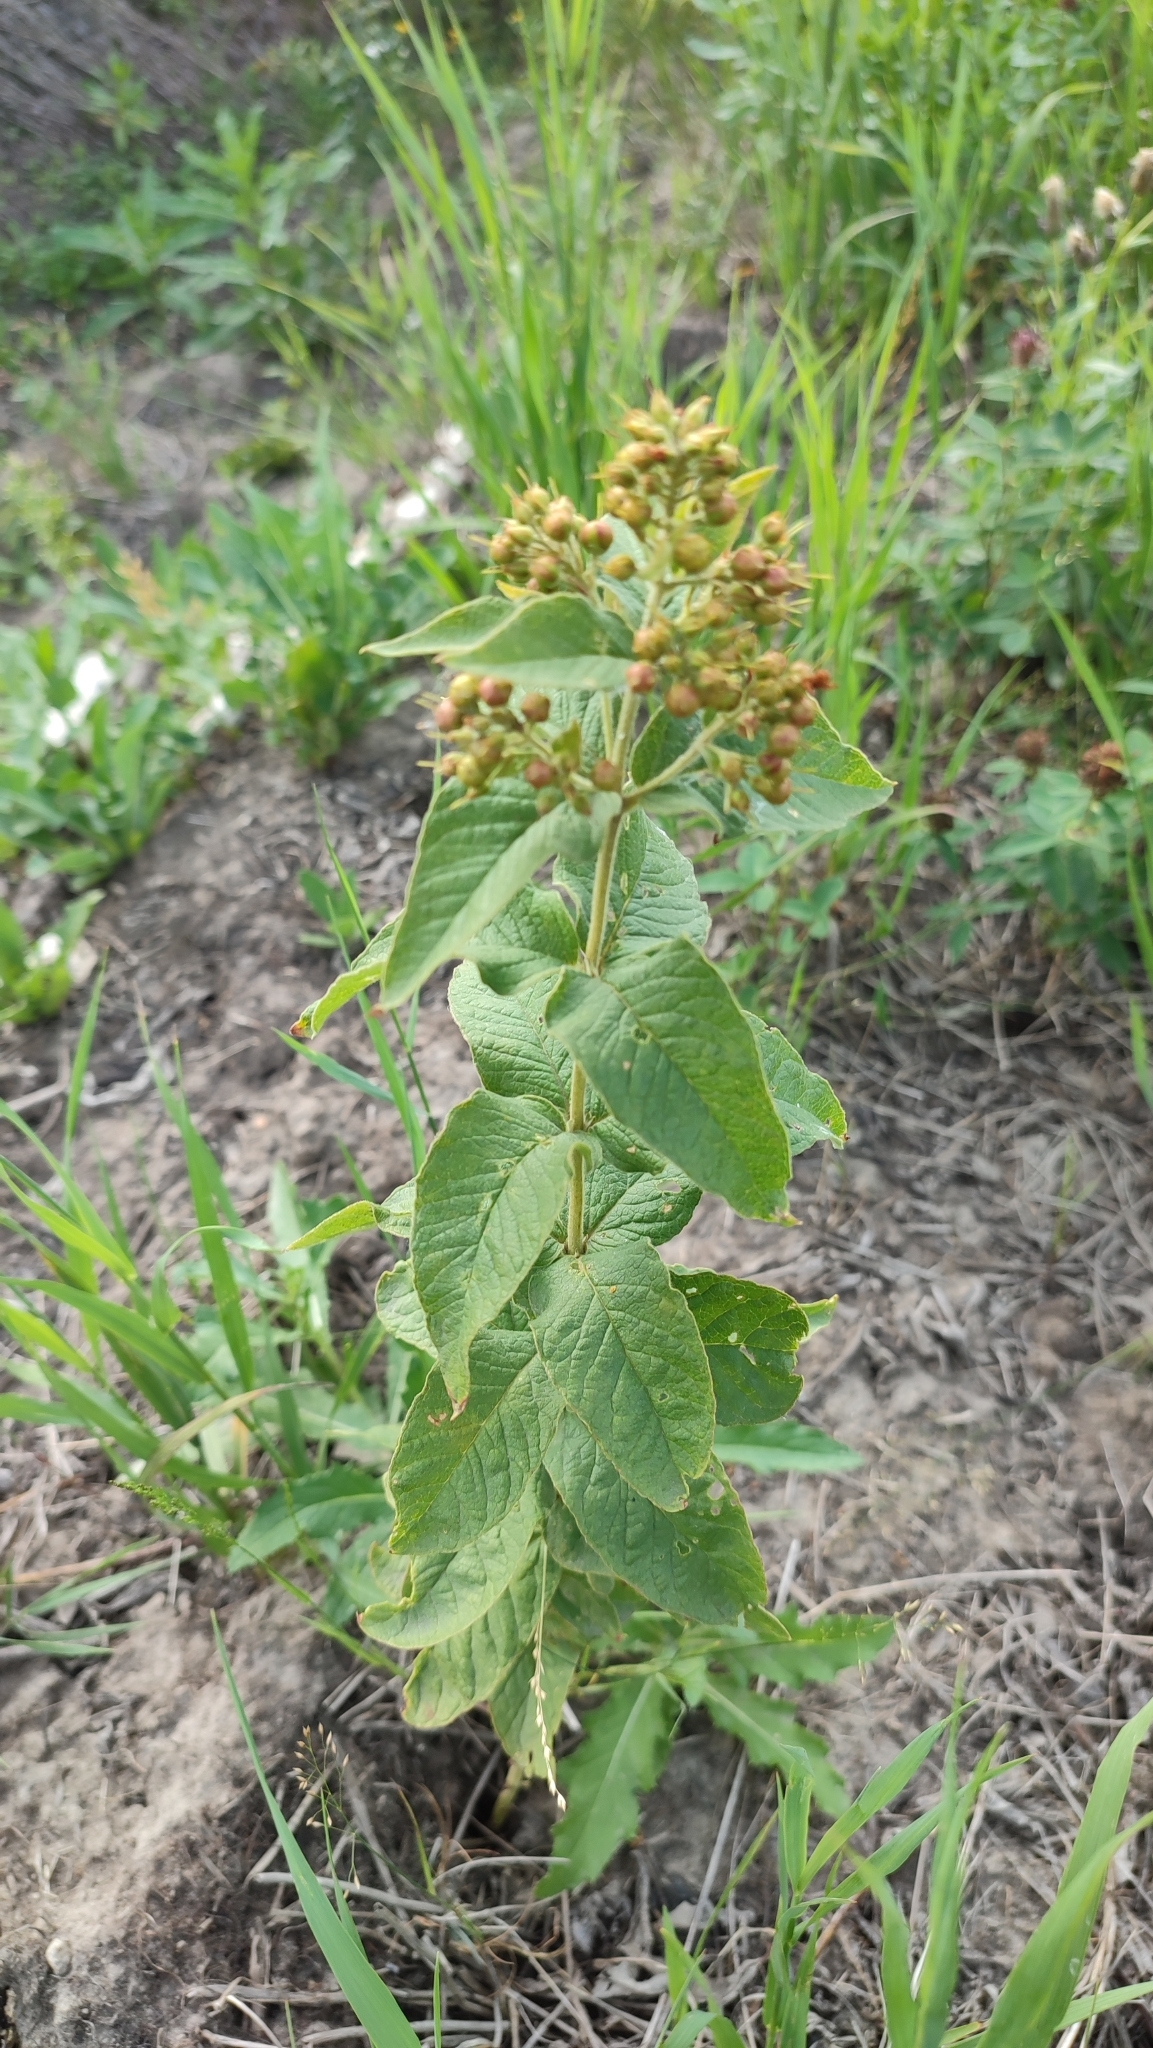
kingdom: Plantae
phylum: Tracheophyta
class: Magnoliopsida
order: Ericales
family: Primulaceae
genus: Lysimachia
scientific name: Lysimachia vulgaris
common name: Yellow loosestrife
